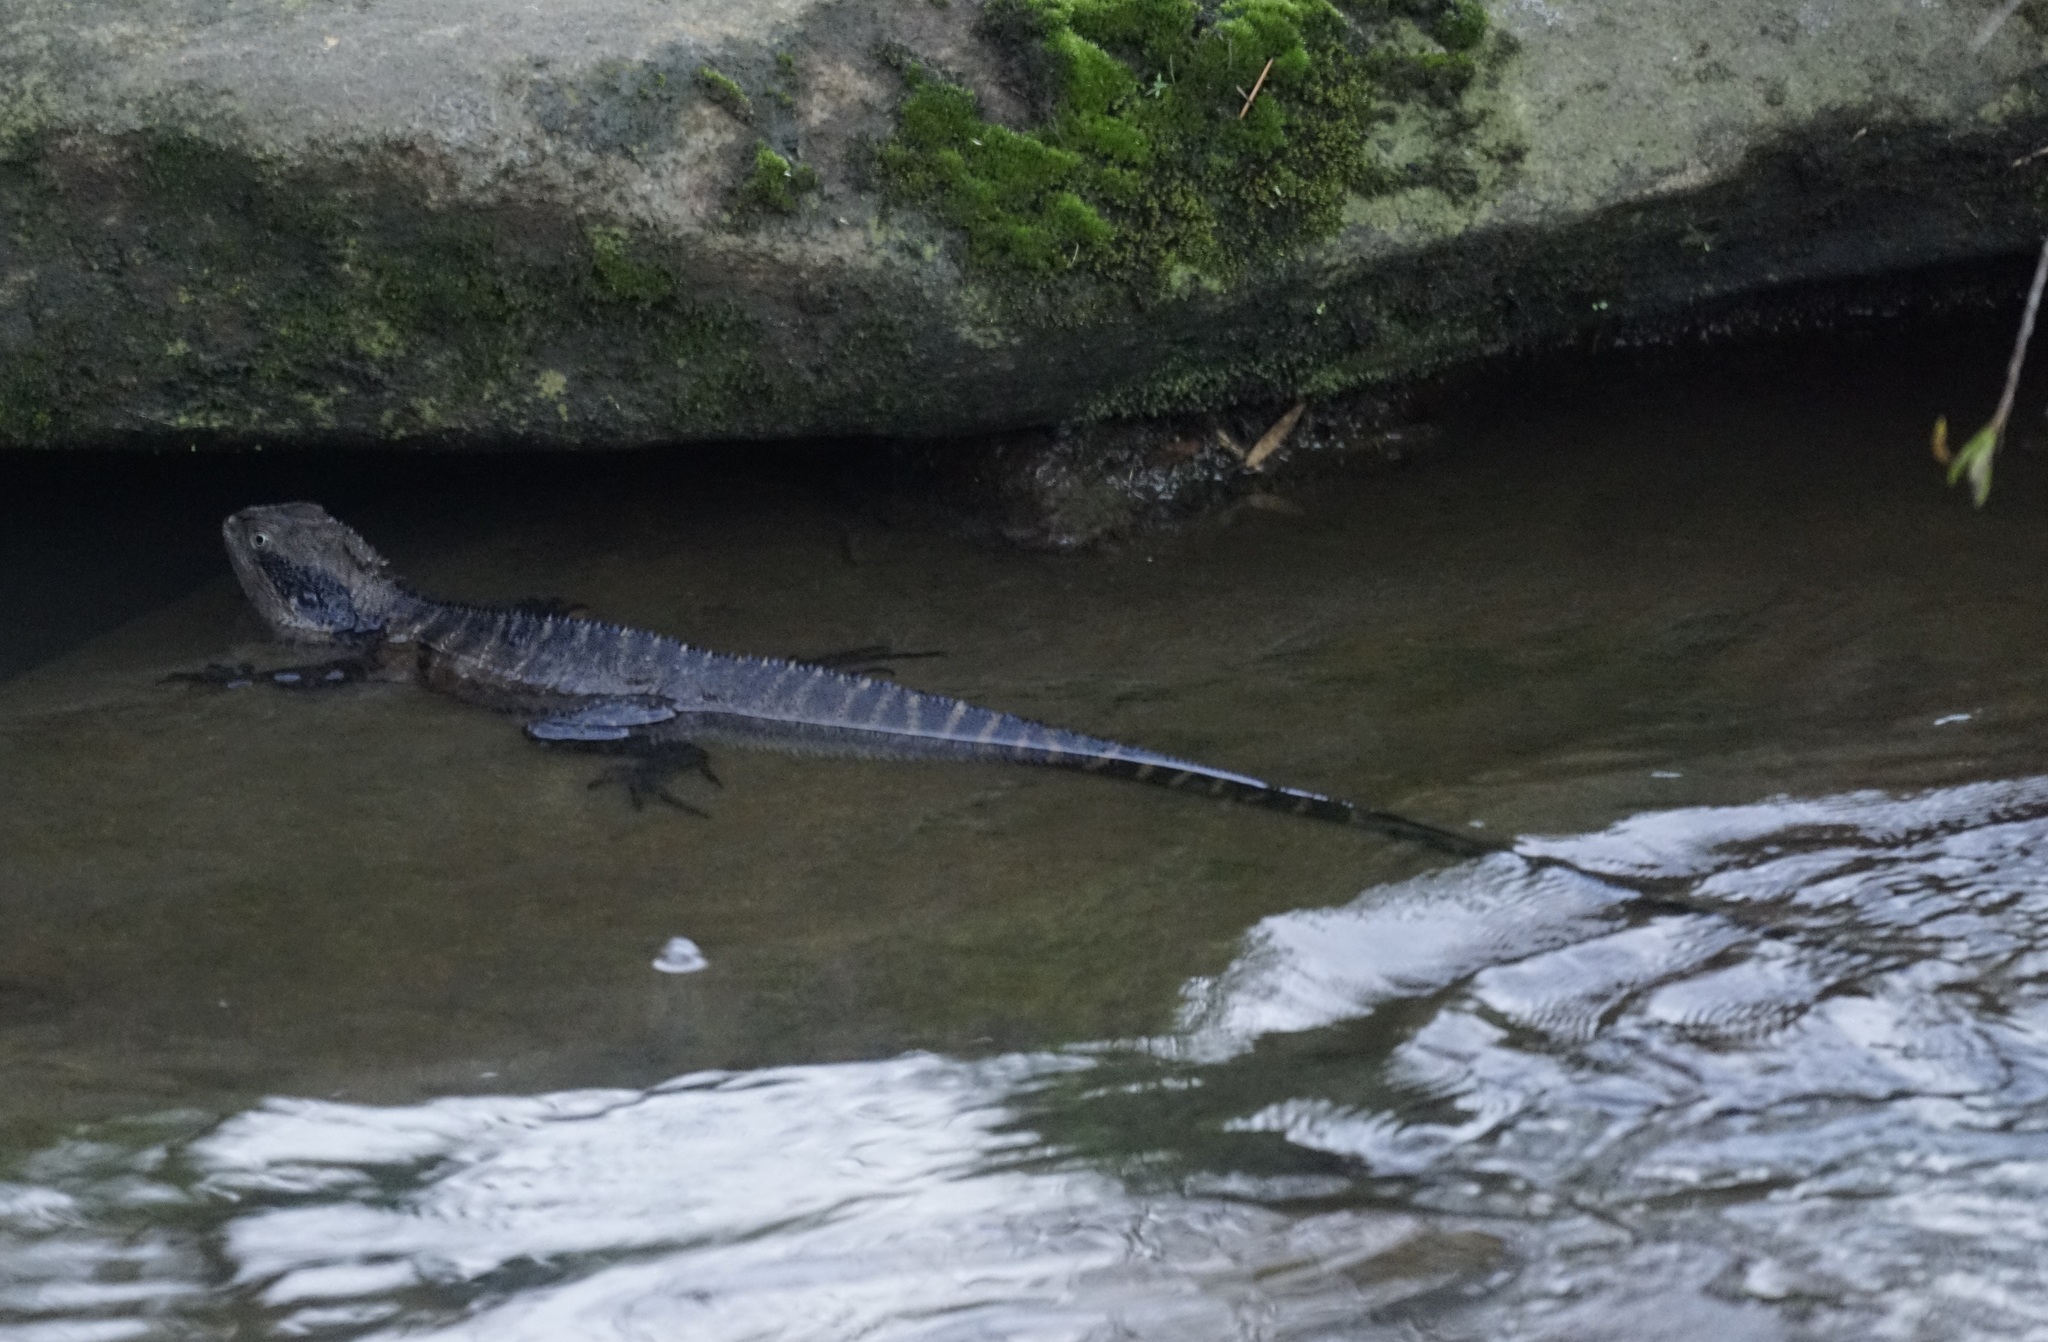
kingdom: Animalia
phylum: Chordata
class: Squamata
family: Agamidae
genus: Intellagama
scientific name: Intellagama lesueurii
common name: Eastern water dragon
